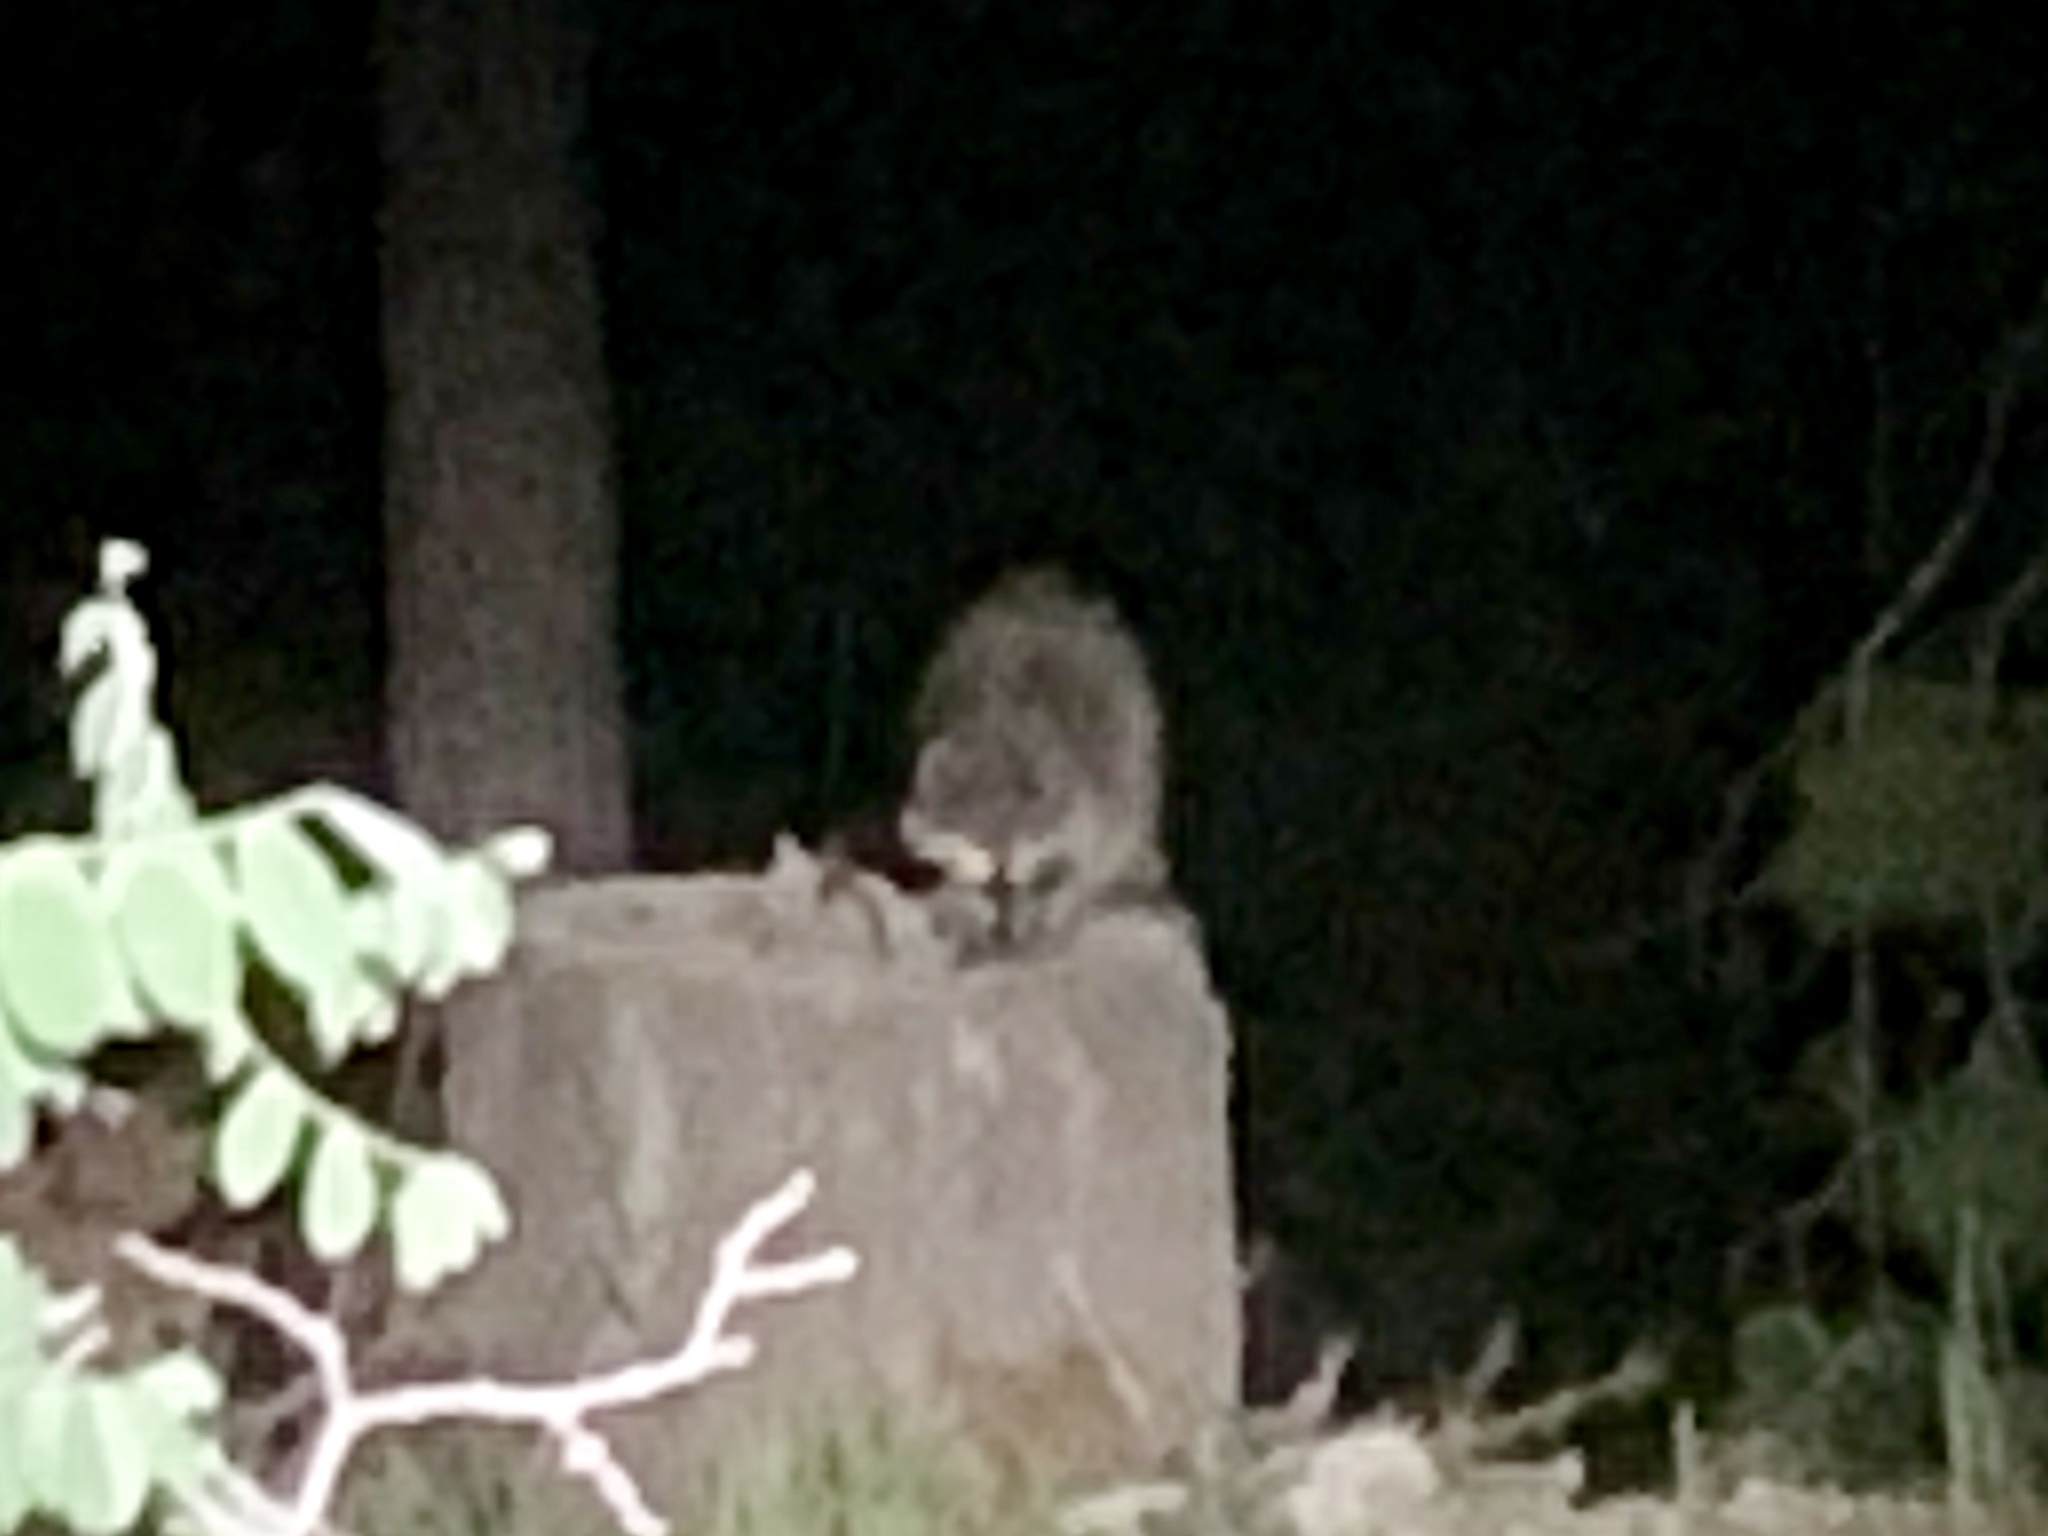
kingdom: Animalia
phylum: Chordata
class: Mammalia
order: Carnivora
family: Procyonidae
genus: Procyon
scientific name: Procyon lotor
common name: Raccoon
